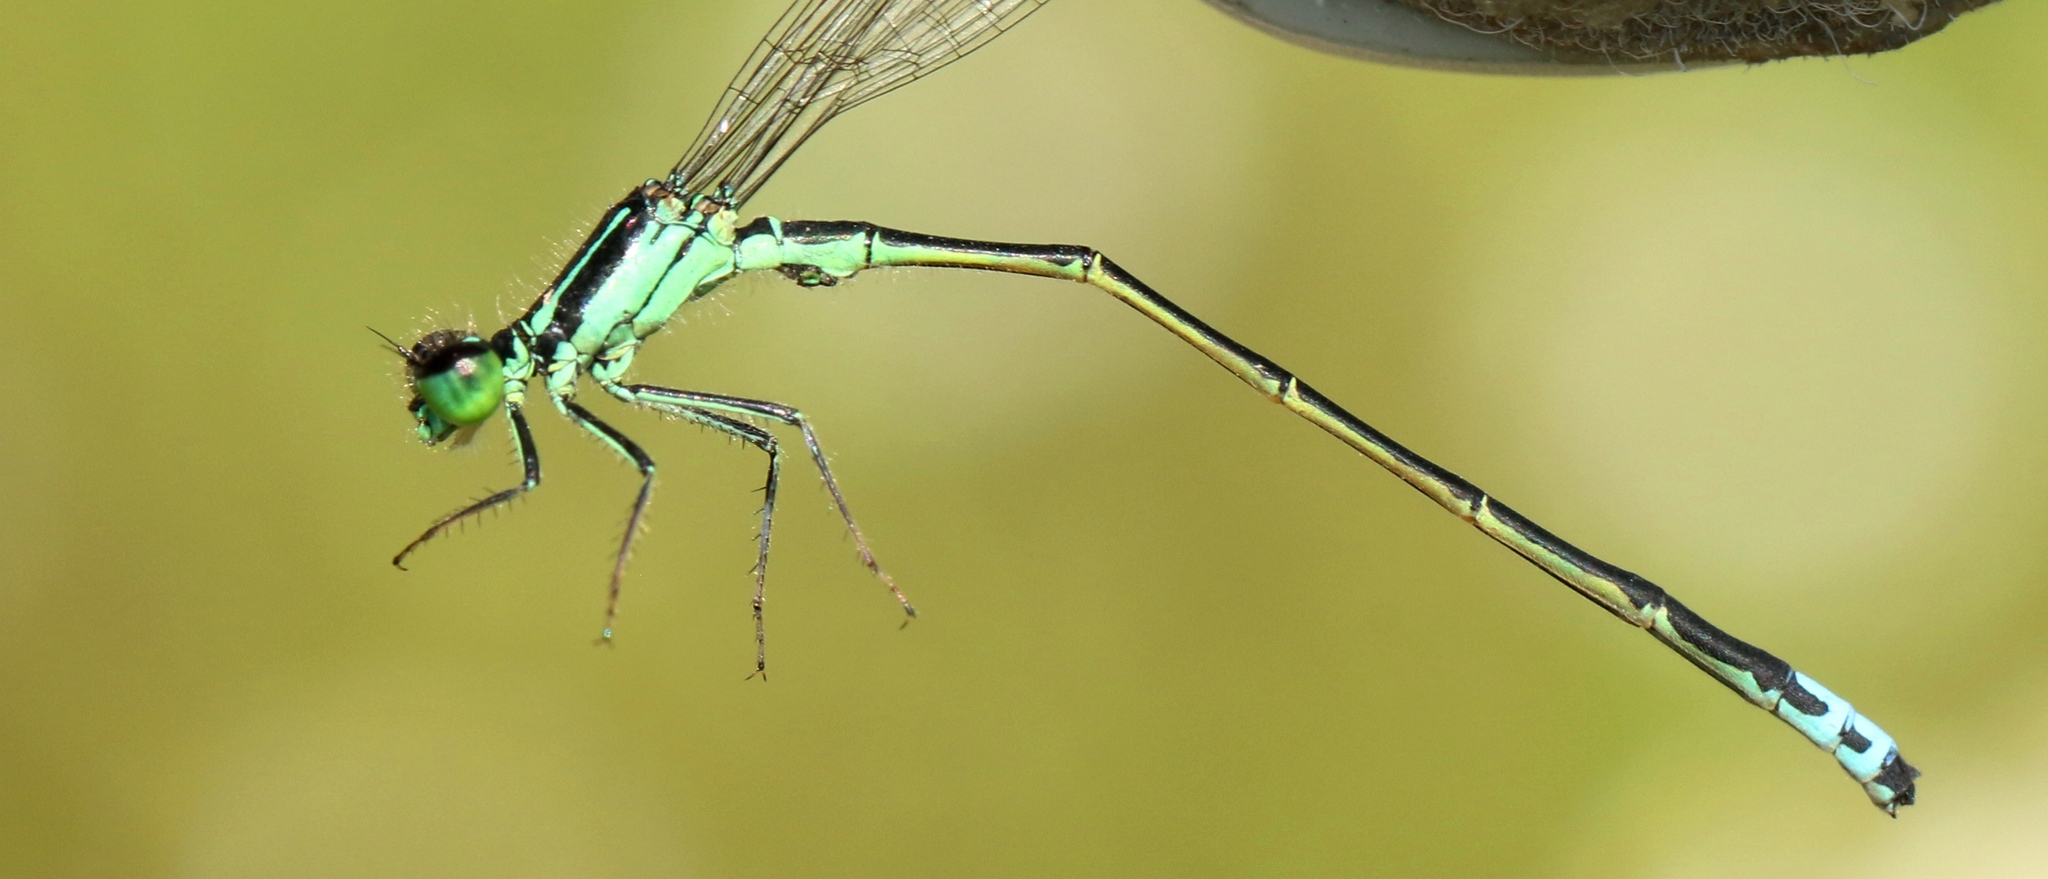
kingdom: Animalia
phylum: Arthropoda
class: Insecta
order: Odonata
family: Coenagrionidae
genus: Ischnura
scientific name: Ischnura verticalis
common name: Eastern forktail
